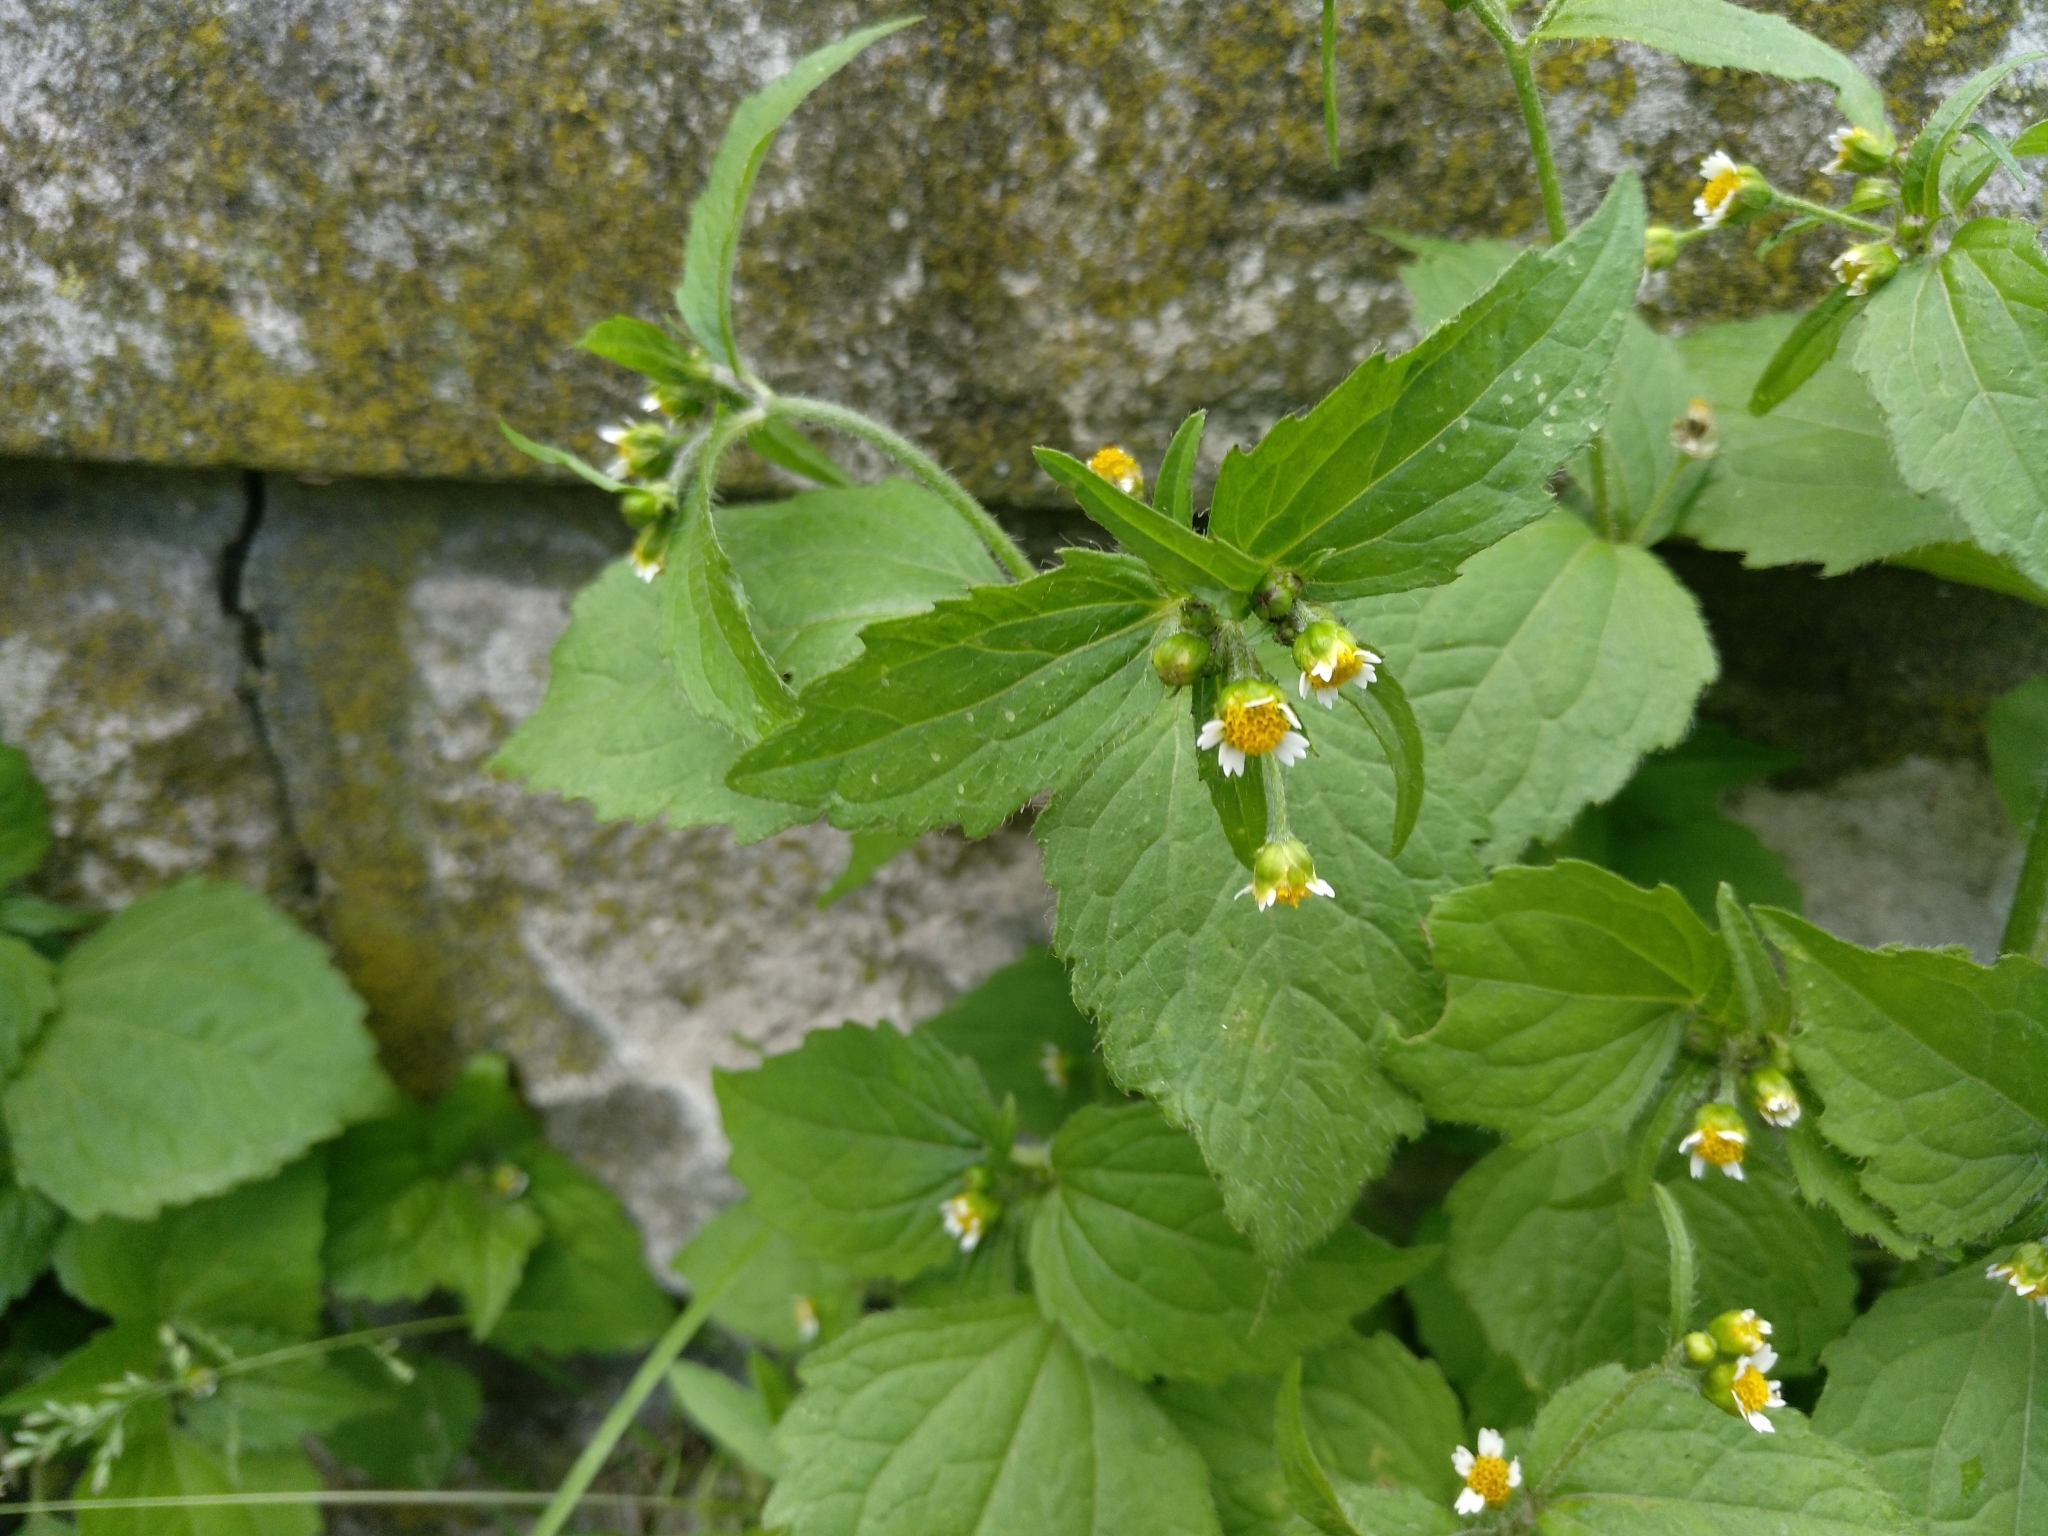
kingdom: Plantae
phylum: Tracheophyta
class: Magnoliopsida
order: Asterales
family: Asteraceae
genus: Galinsoga
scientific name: Galinsoga quadriradiata
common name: Shaggy soldier
